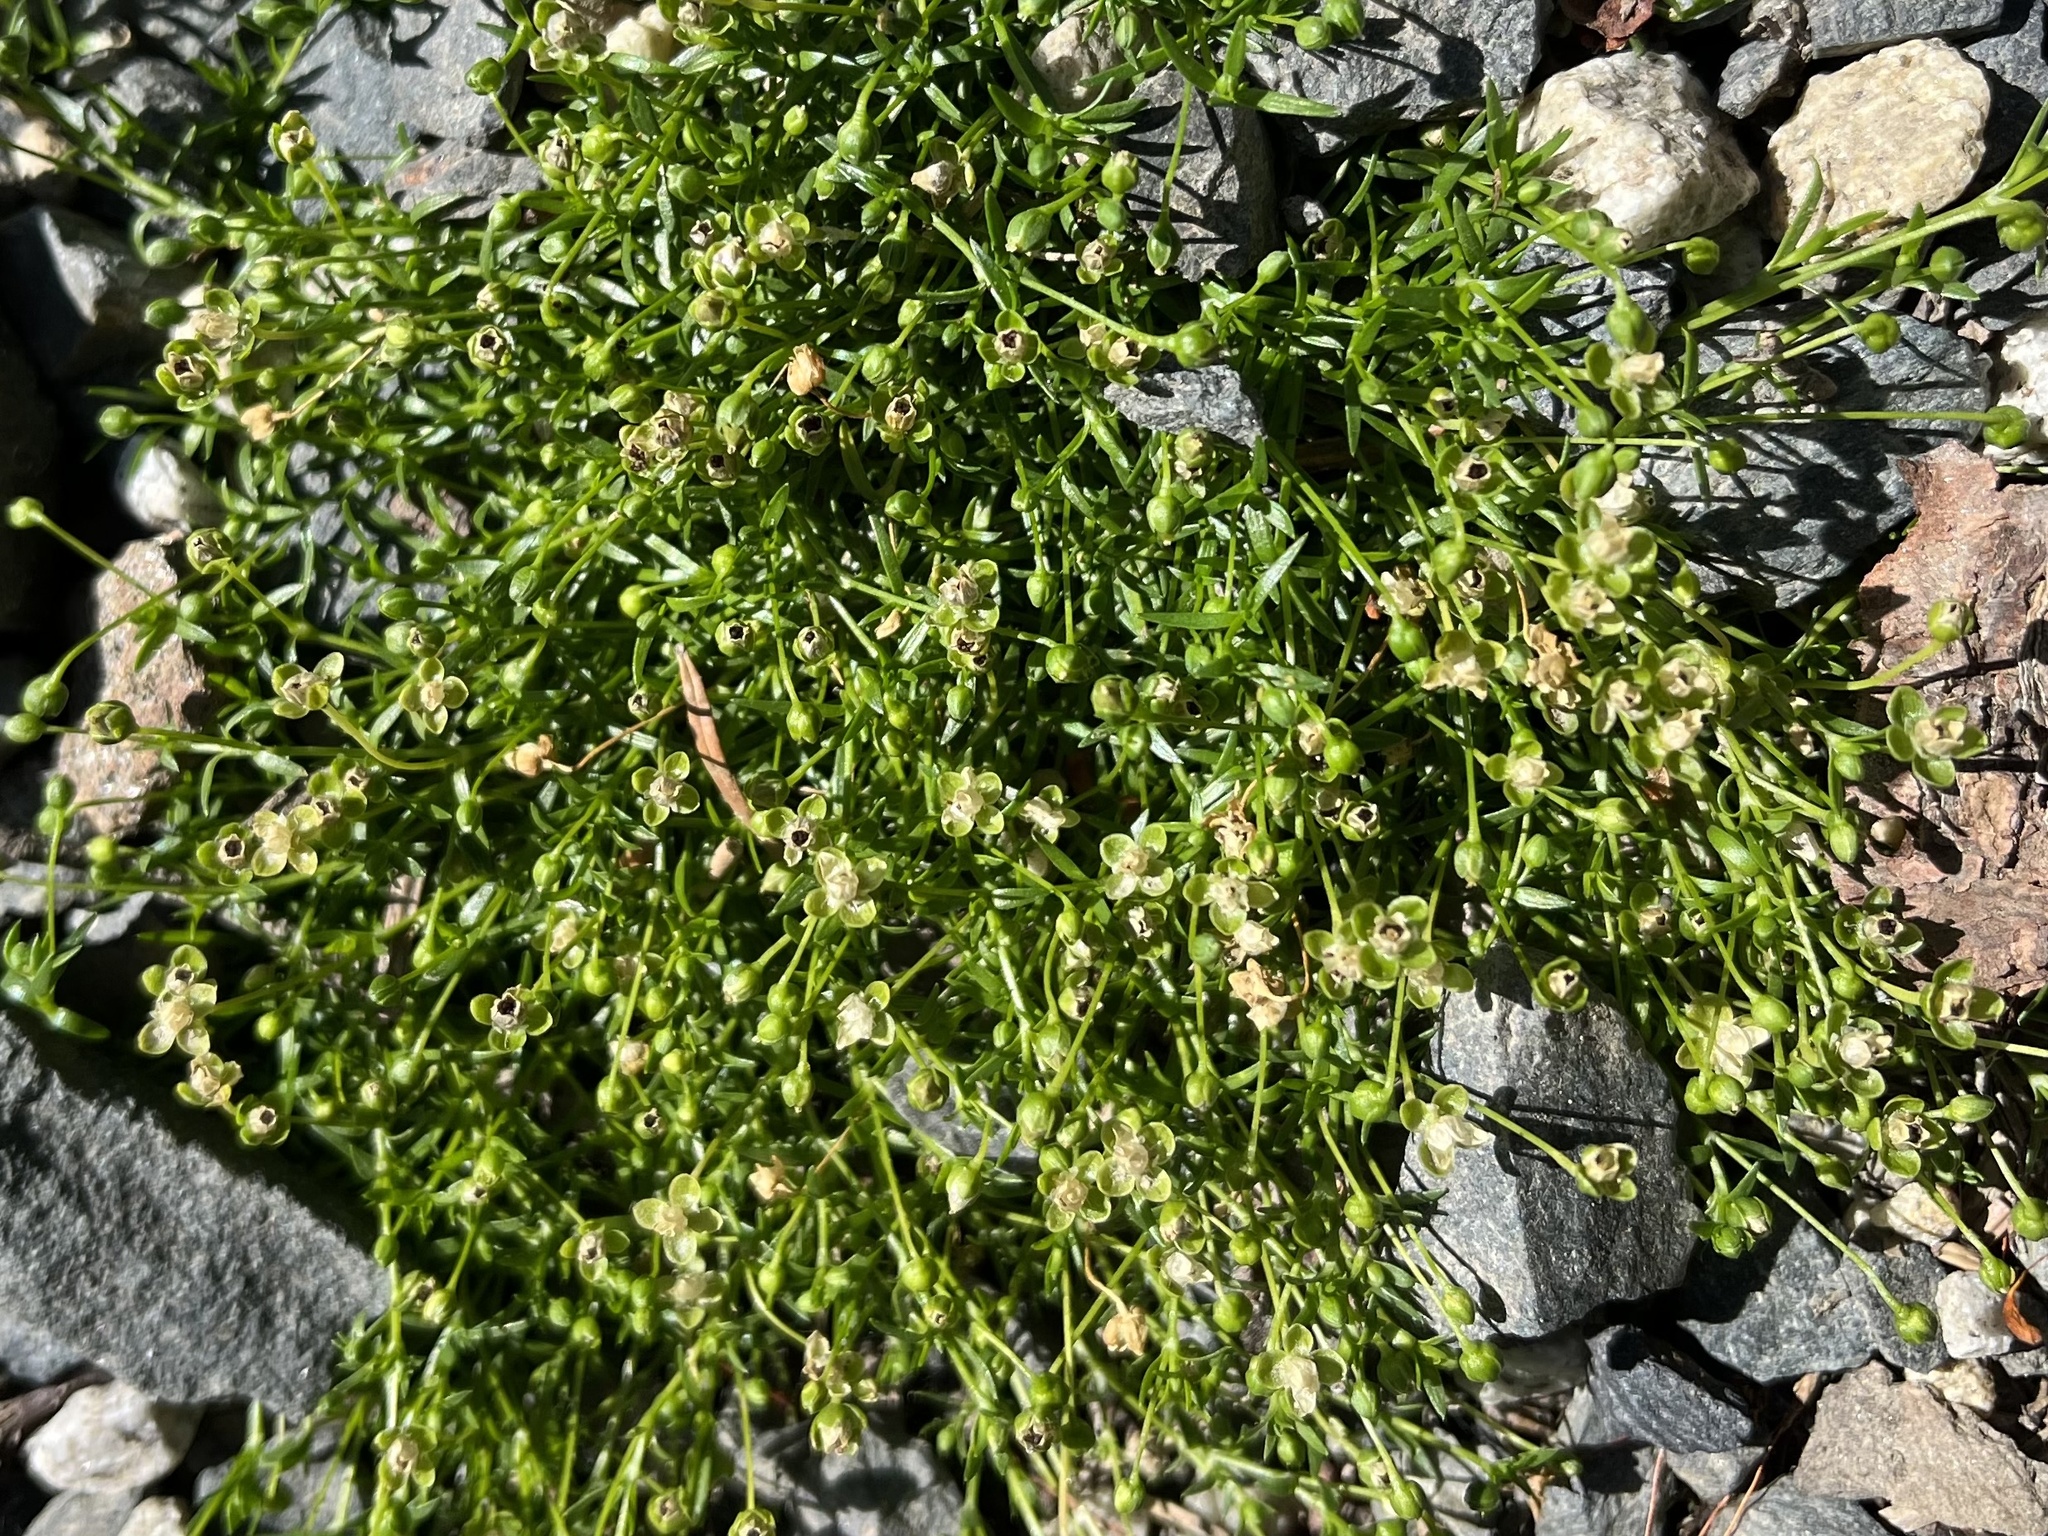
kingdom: Plantae
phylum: Tracheophyta
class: Magnoliopsida
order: Caryophyllales
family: Caryophyllaceae
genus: Sagina
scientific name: Sagina procumbens
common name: Procumbent pearlwort
